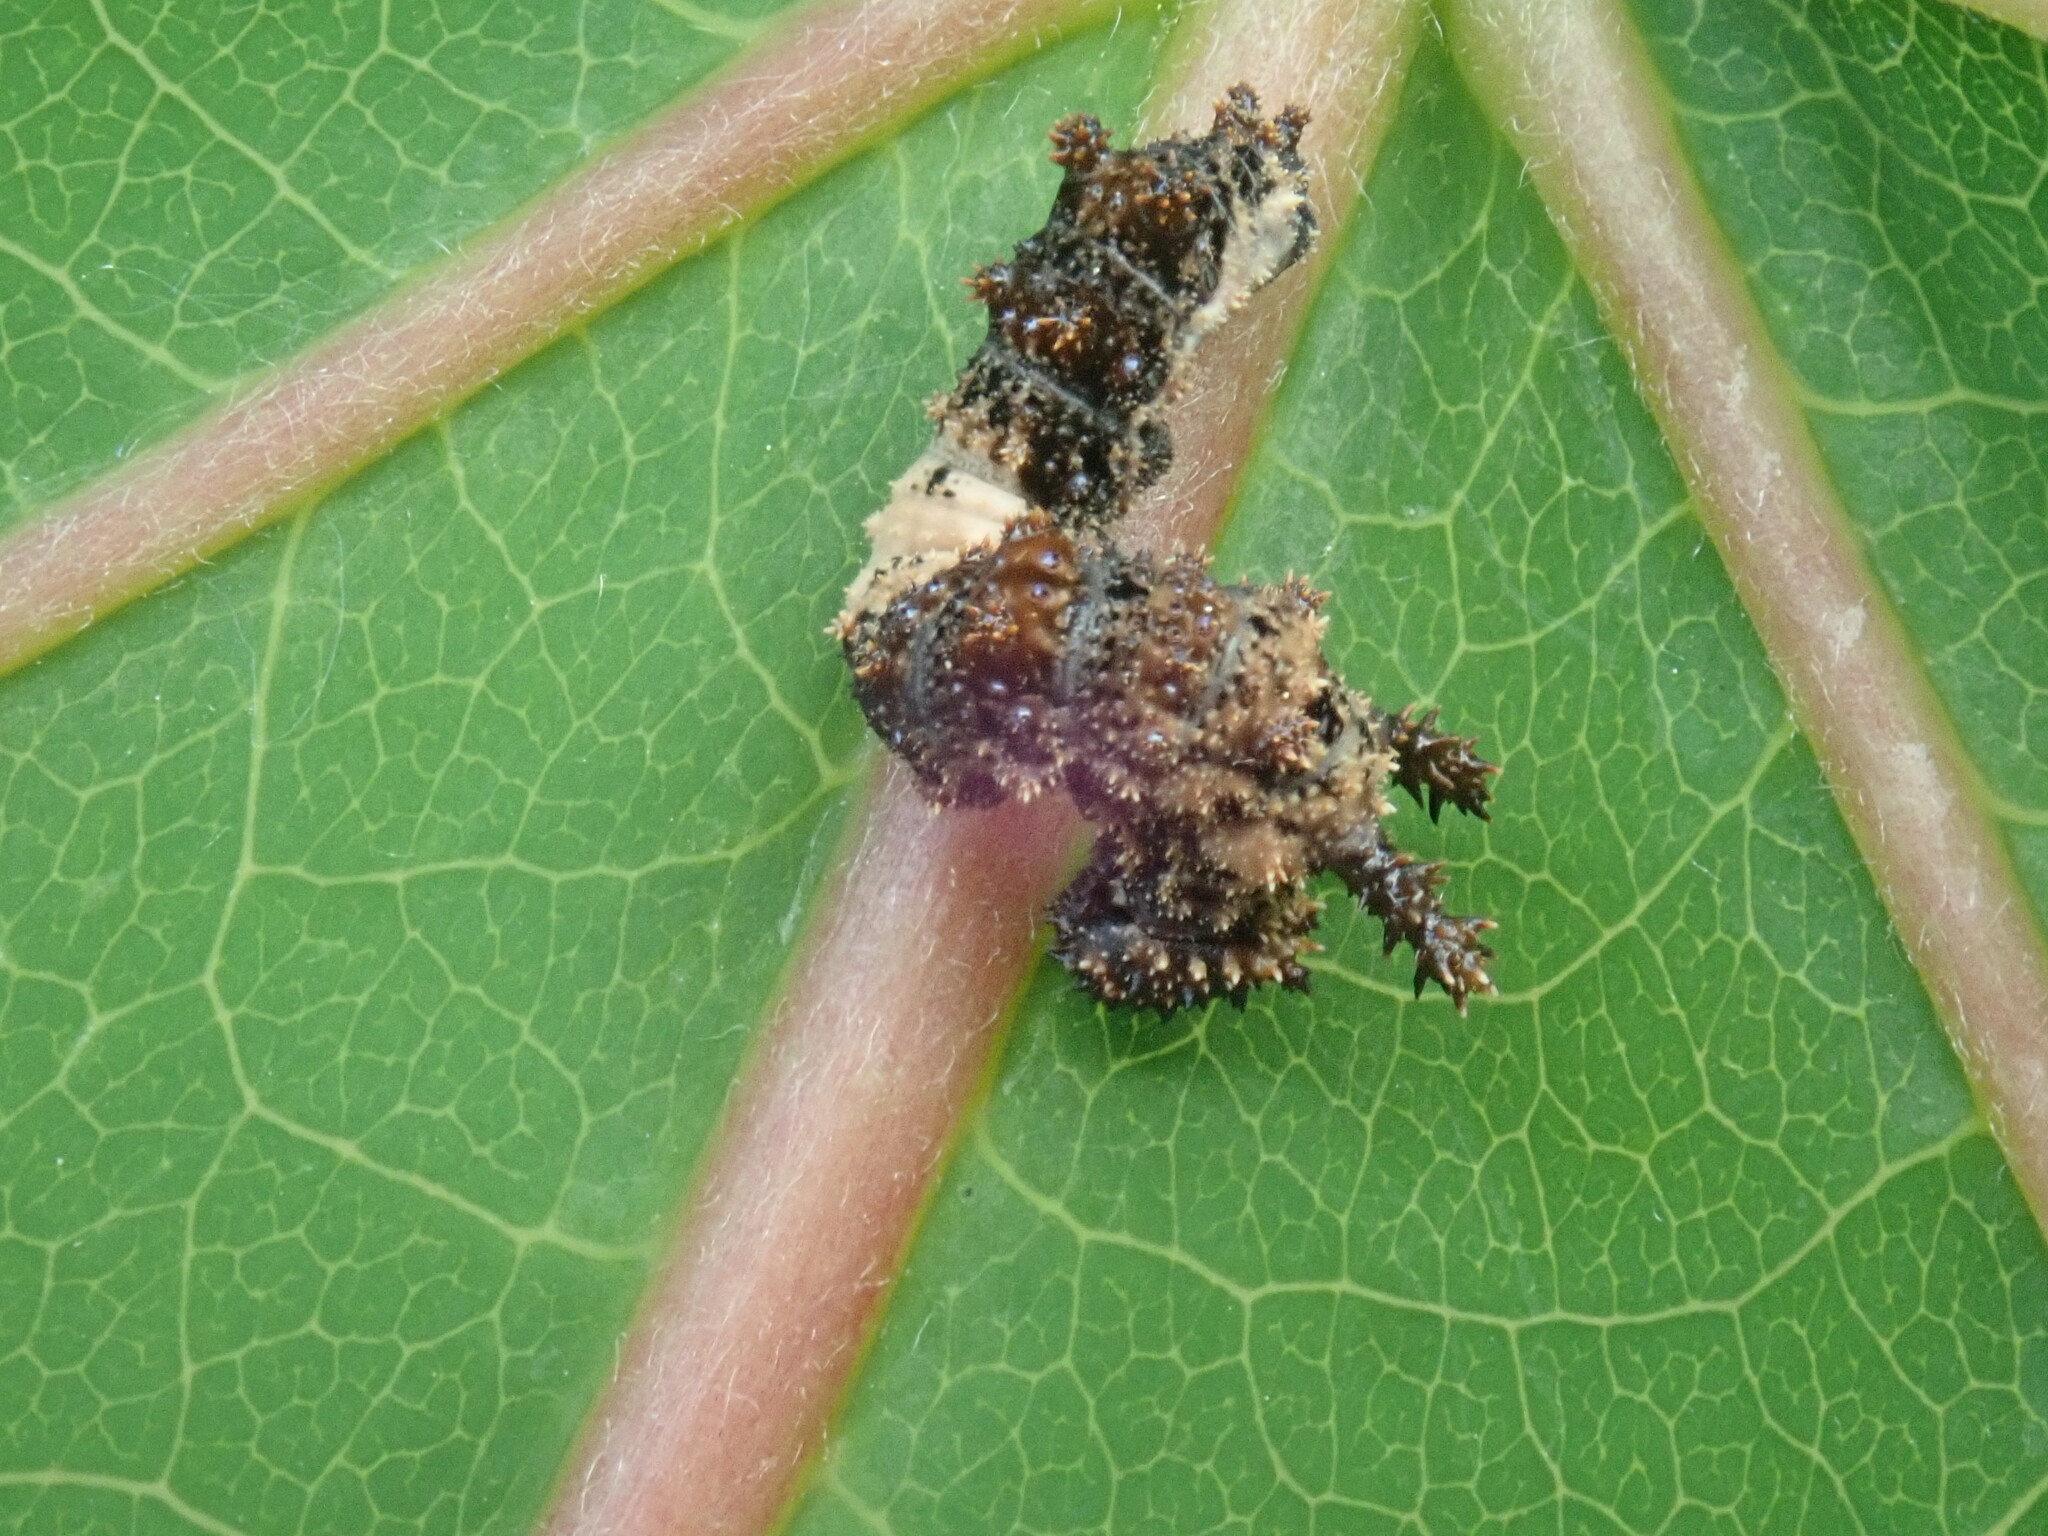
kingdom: Animalia
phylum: Arthropoda
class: Insecta
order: Lepidoptera
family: Nymphalidae
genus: Limenitis
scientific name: Limenitis archippus
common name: Viceroy
